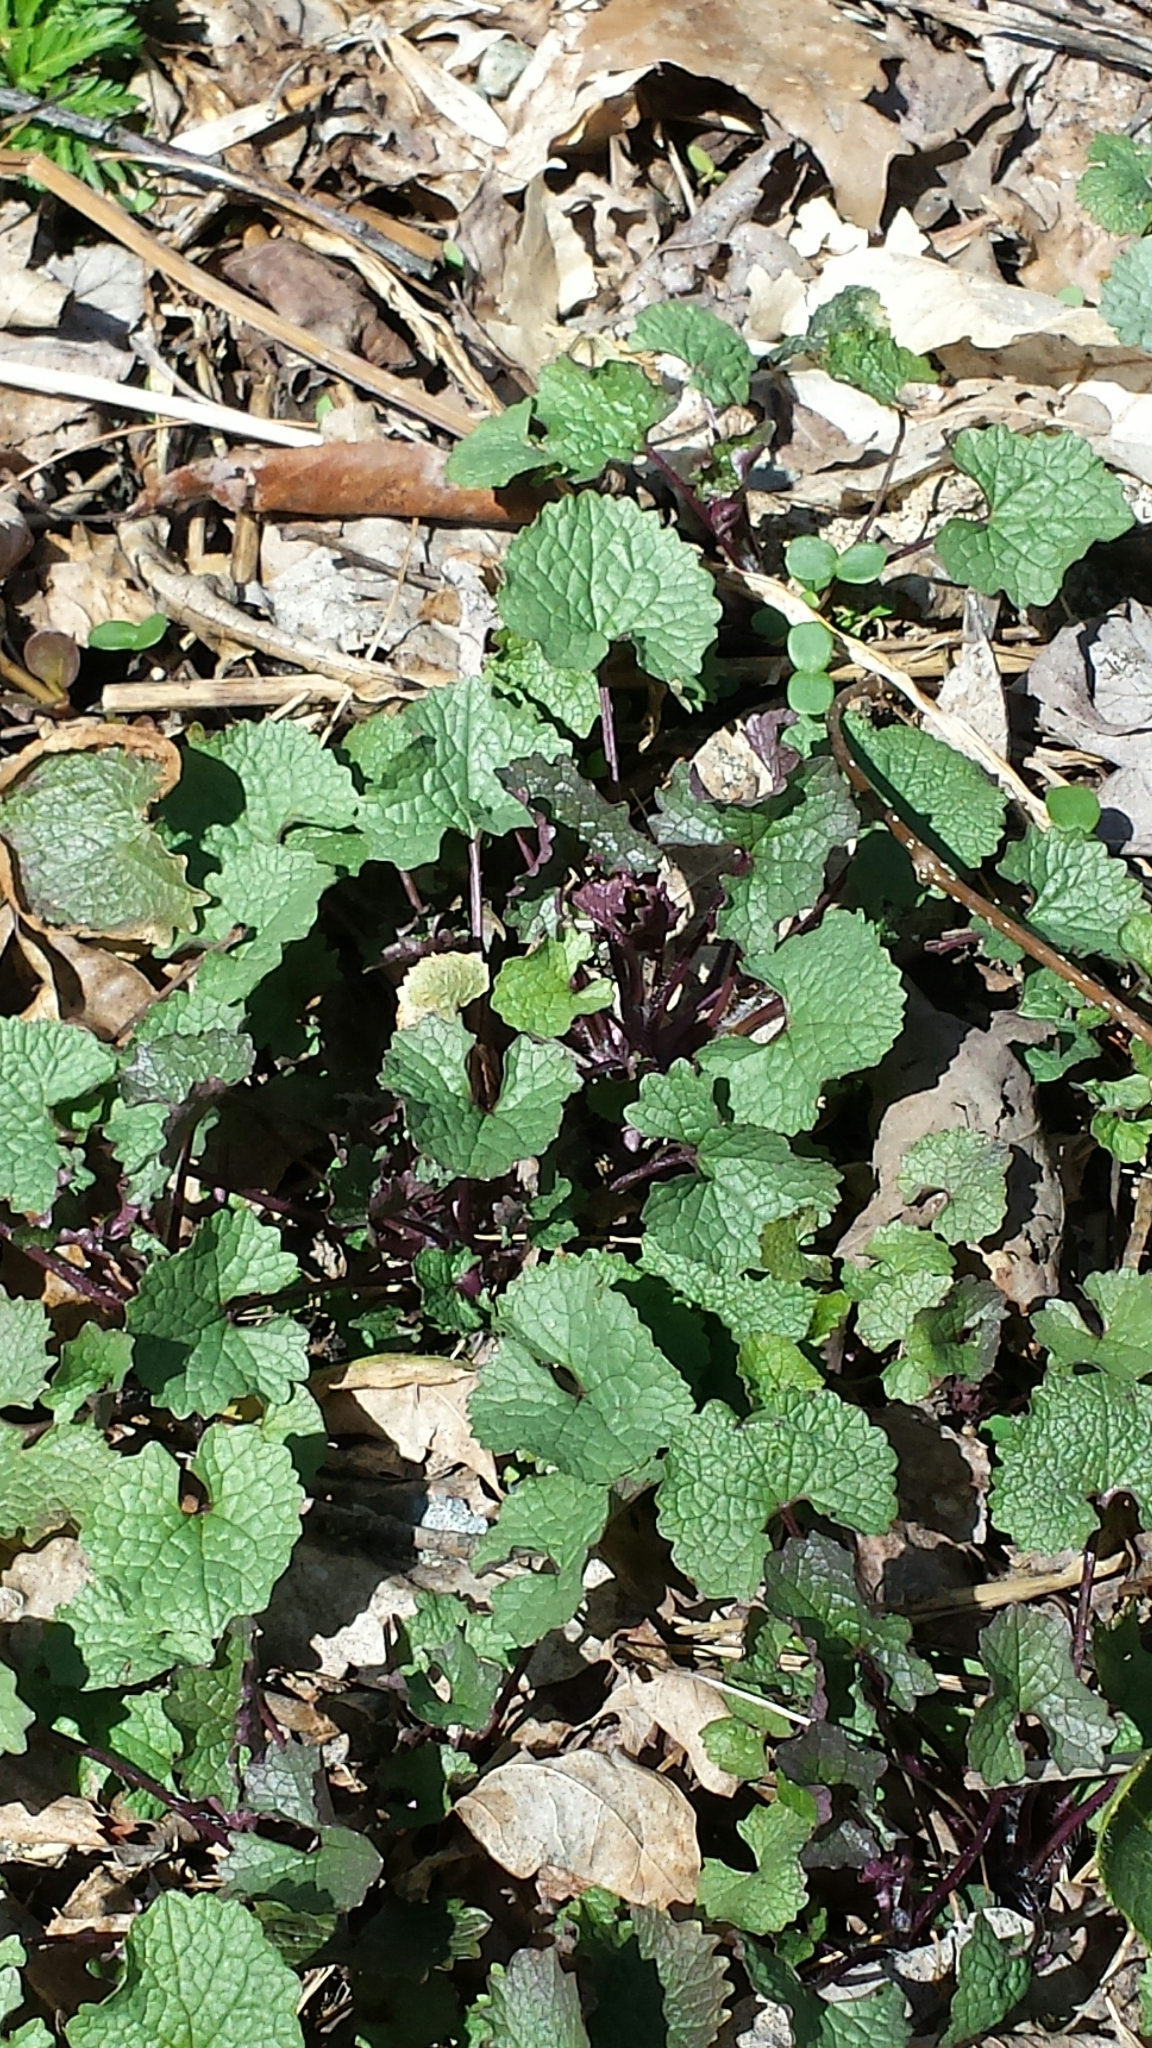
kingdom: Plantae
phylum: Tracheophyta
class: Magnoliopsida
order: Brassicales
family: Brassicaceae
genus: Alliaria
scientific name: Alliaria petiolata
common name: Garlic mustard
